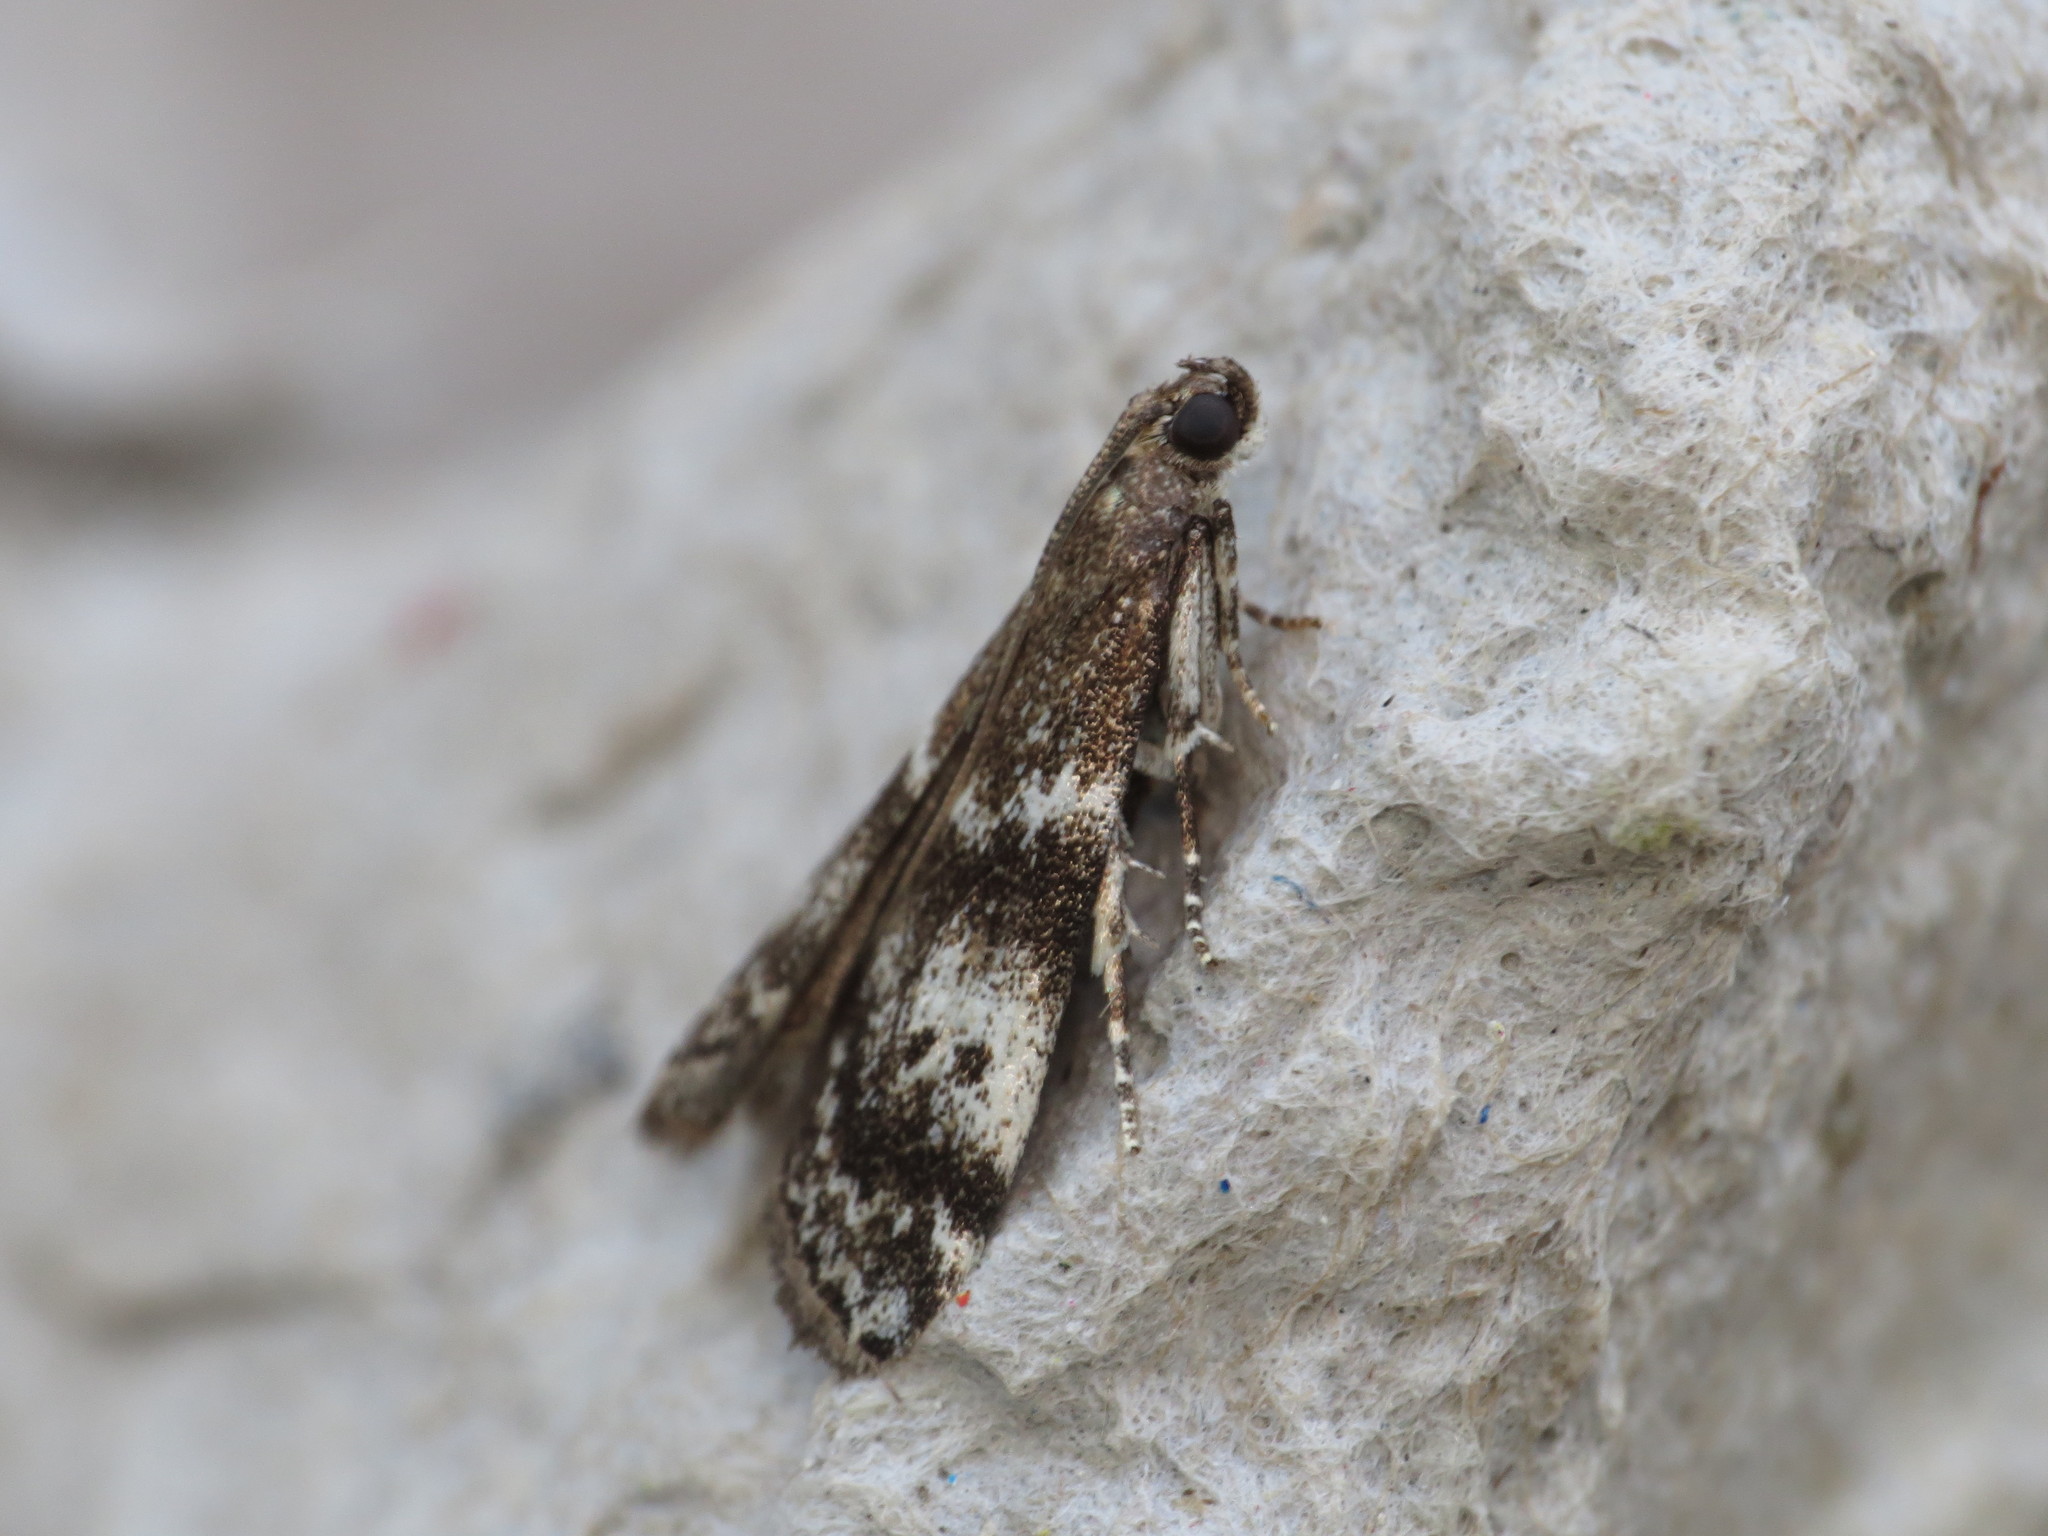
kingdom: Animalia
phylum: Arthropoda
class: Insecta
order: Lepidoptera
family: Pyralidae
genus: Assara
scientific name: Assara terebrella
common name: Dark spruce knot-horn
